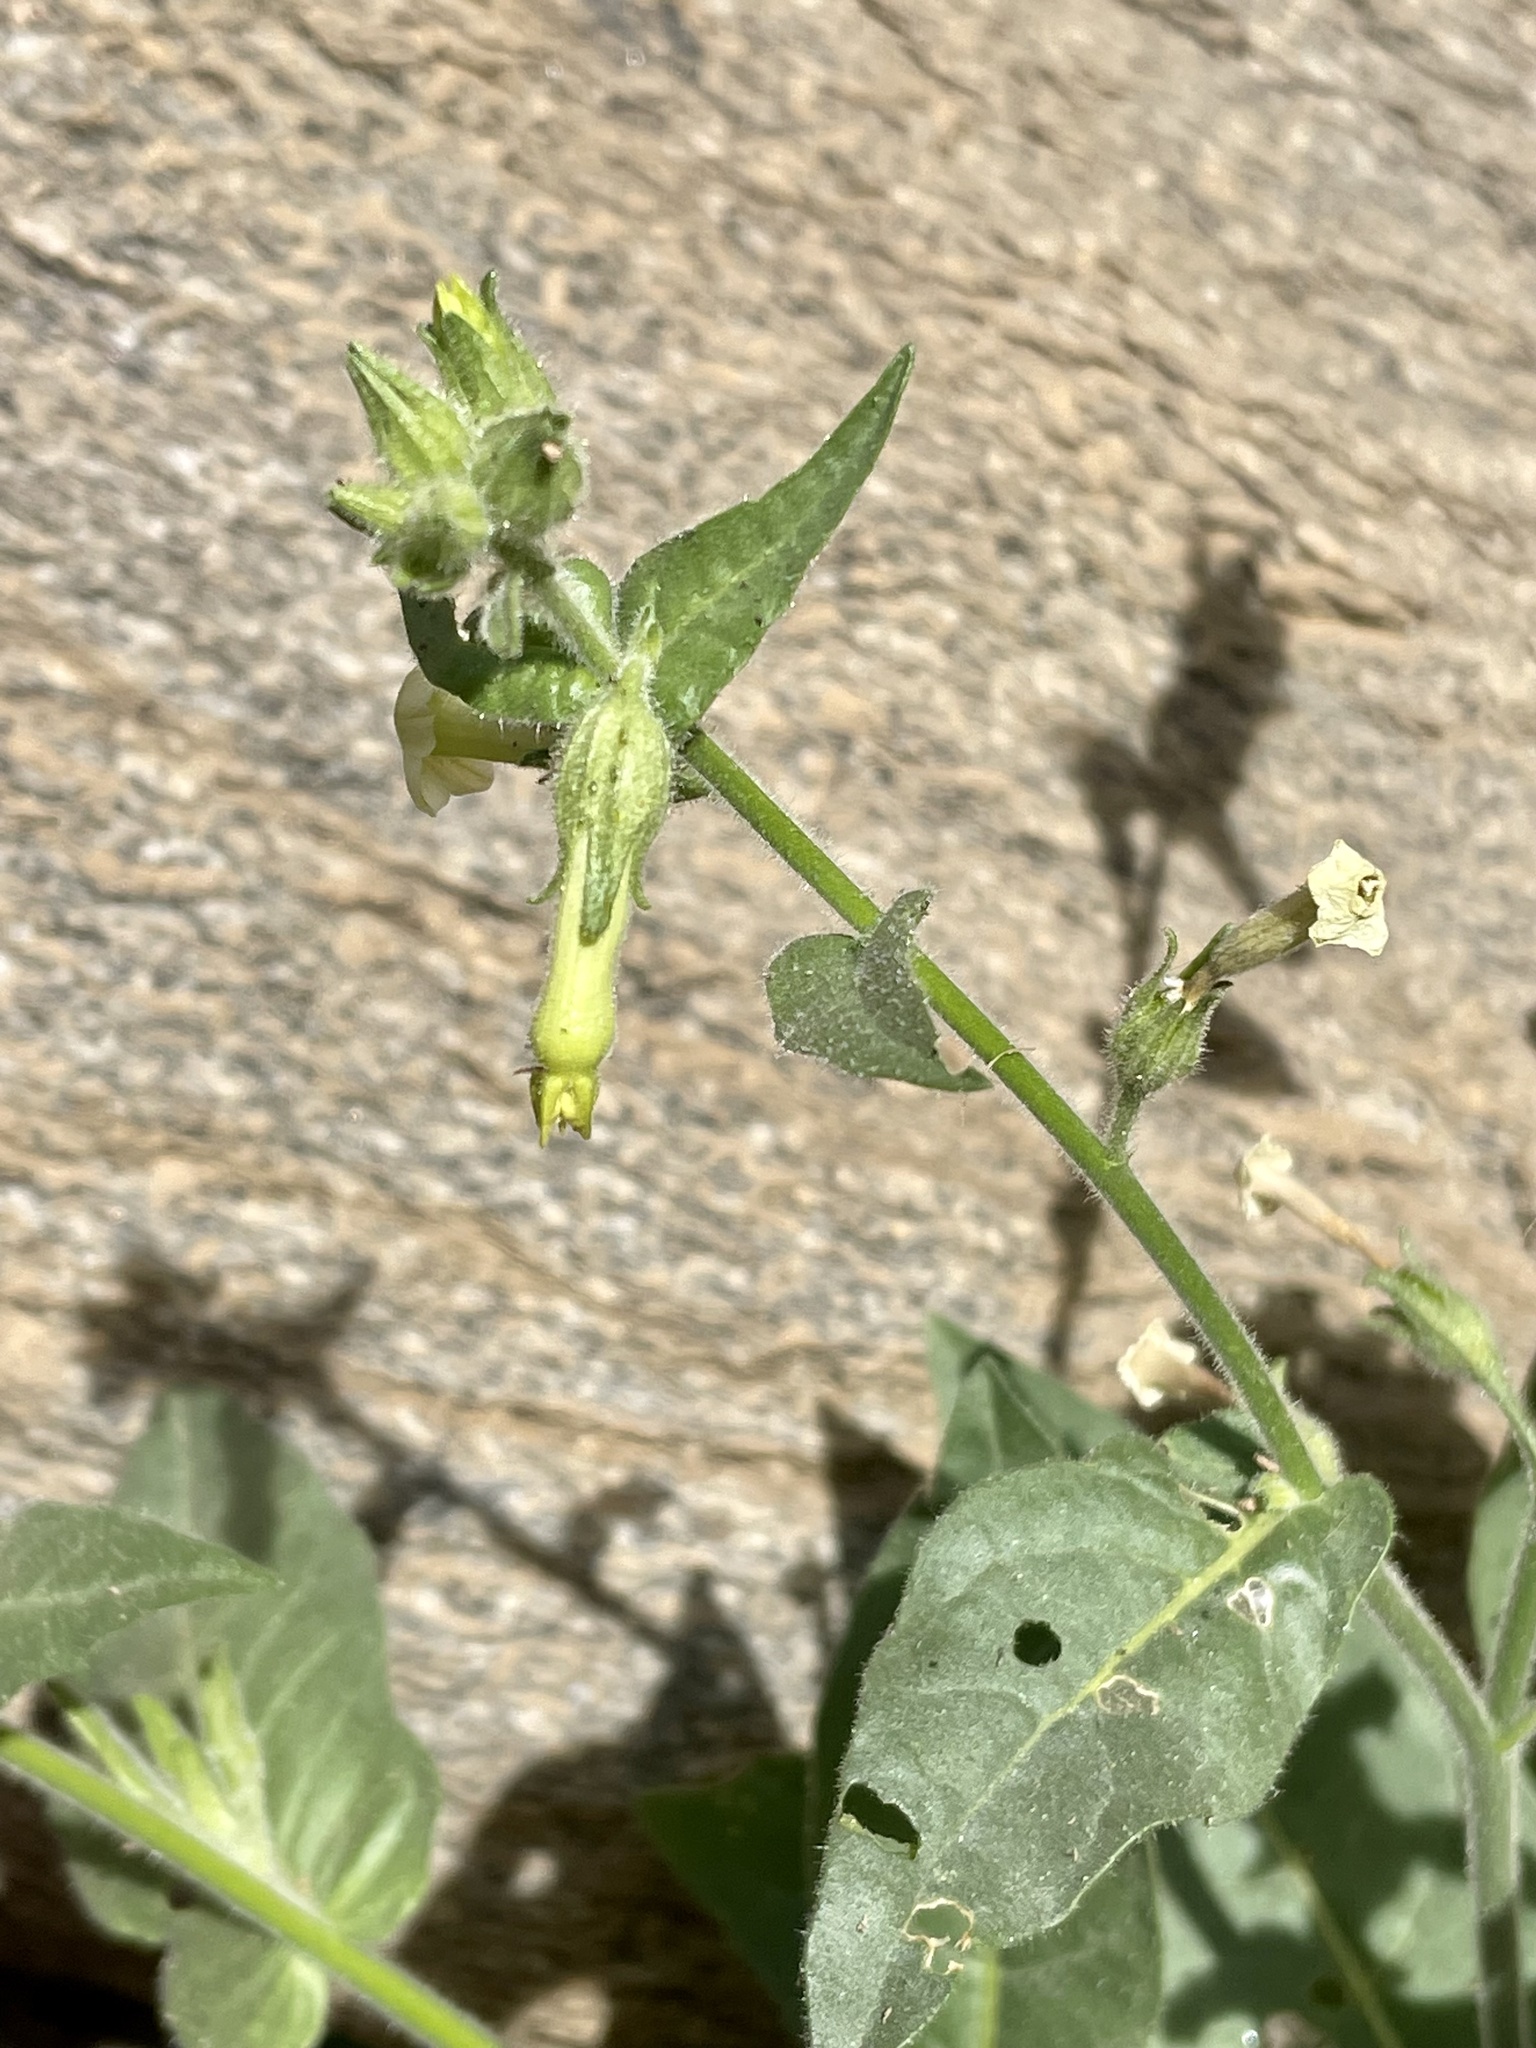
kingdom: Plantae
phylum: Tracheophyta
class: Magnoliopsida
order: Solanales
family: Solanaceae
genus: Nicotiana
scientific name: Nicotiana obtusifolia
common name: Desert tobacco
